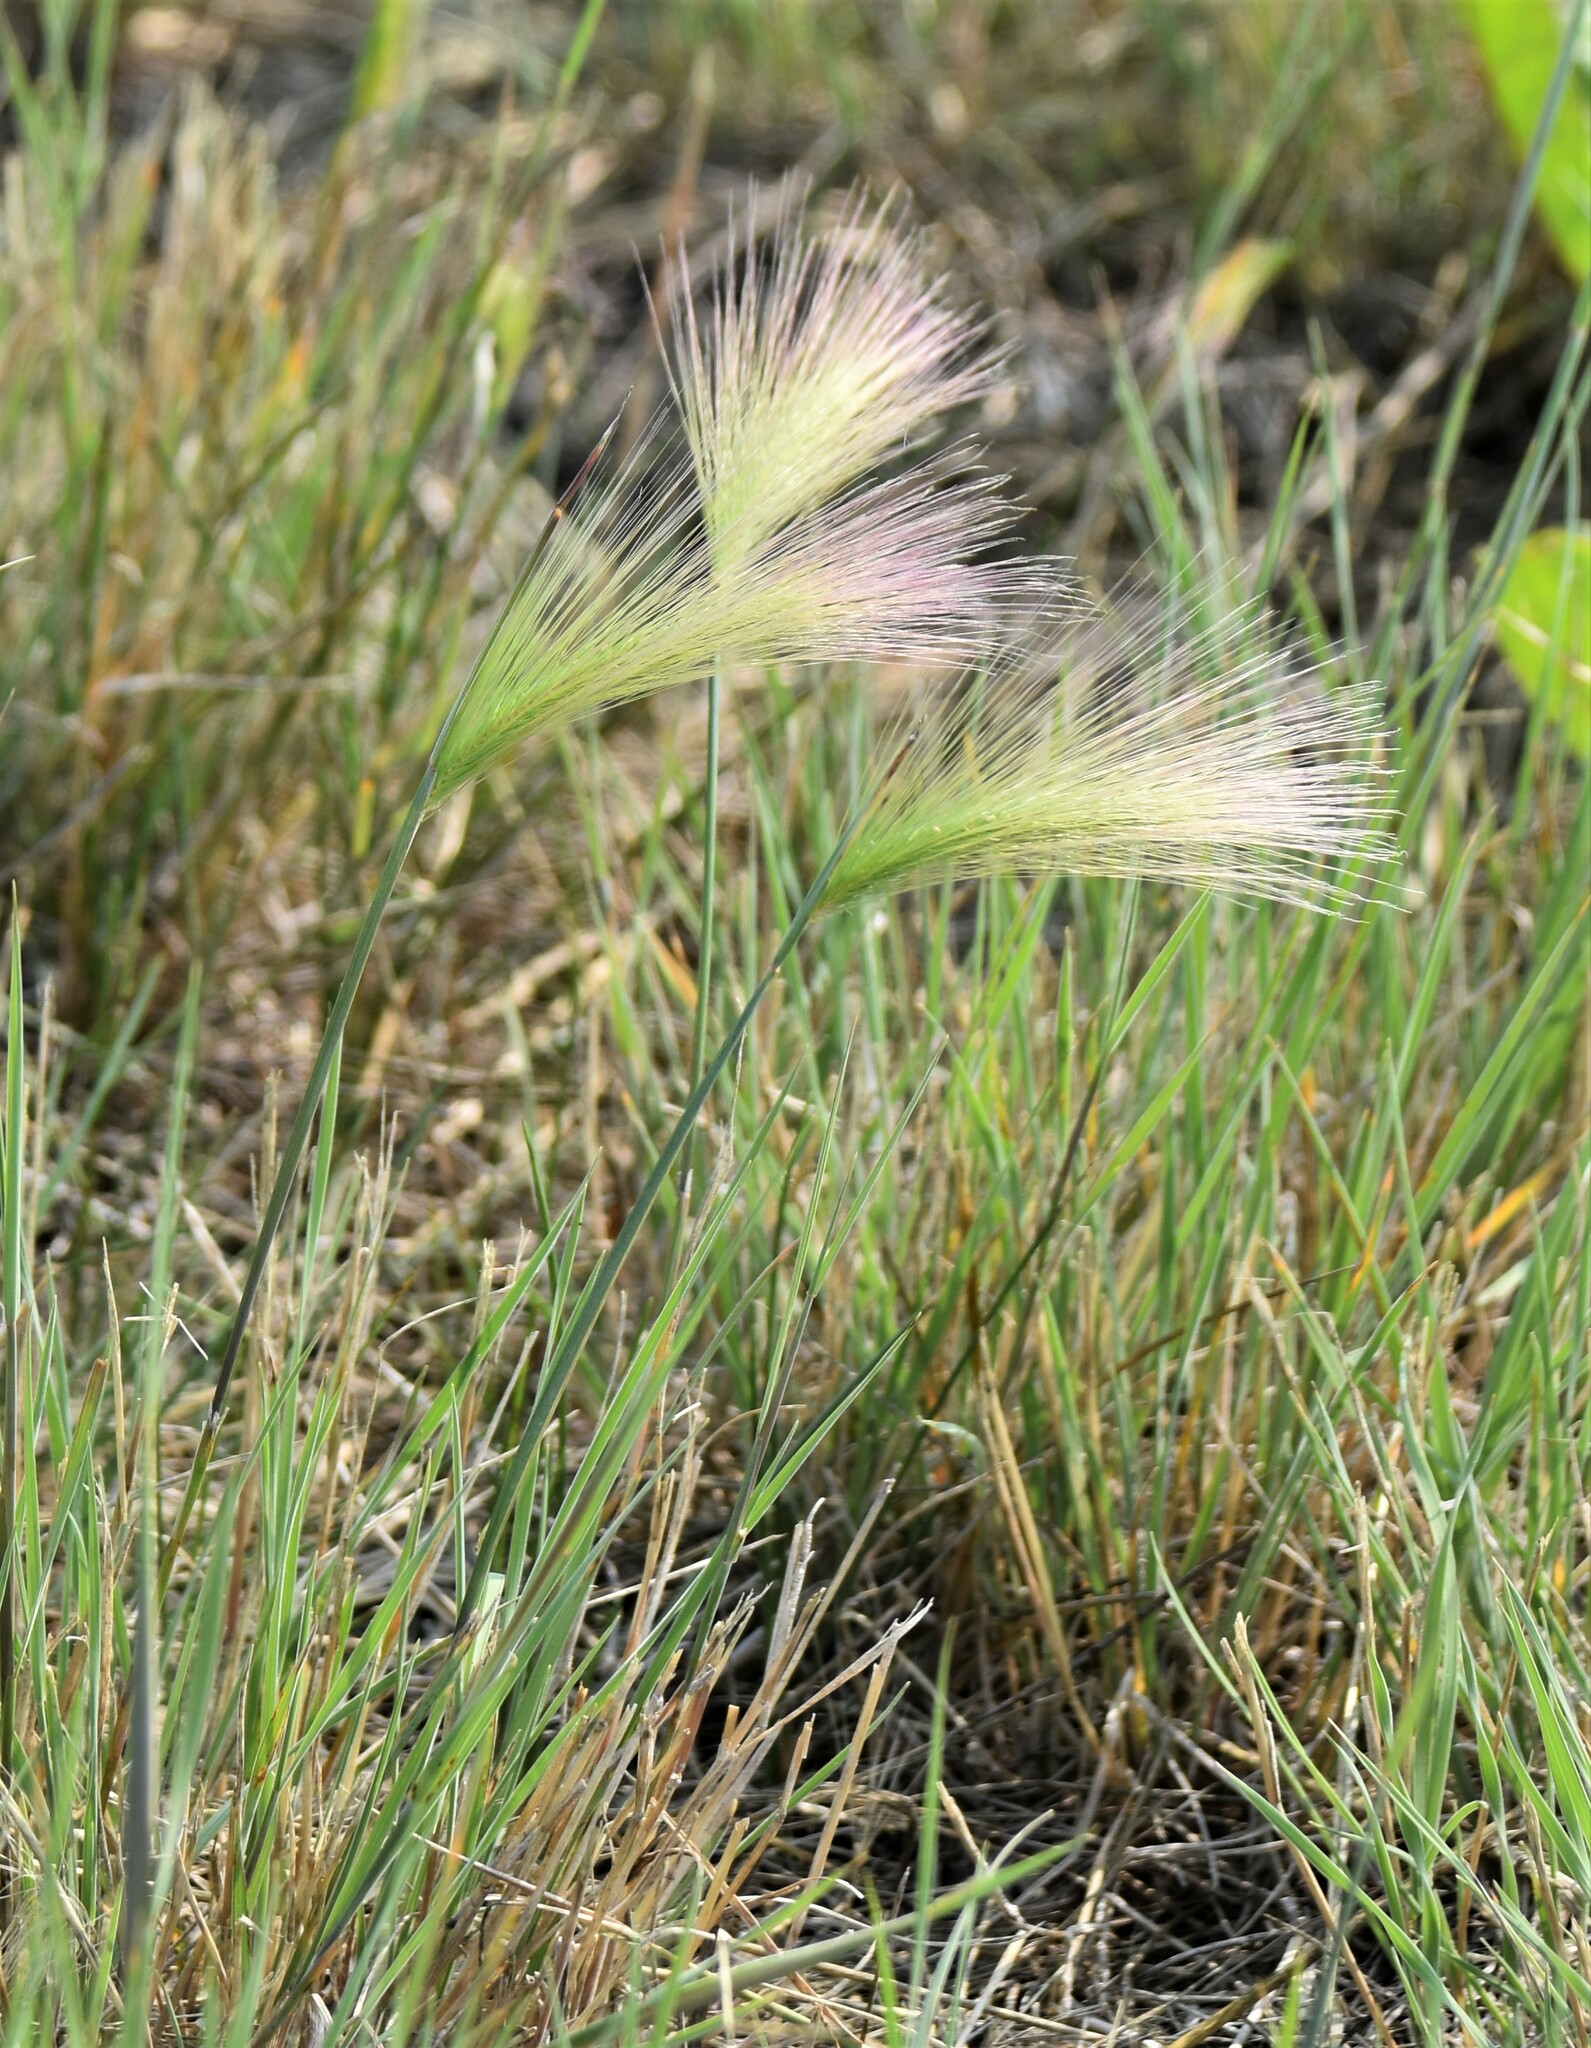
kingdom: Plantae
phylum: Tracheophyta
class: Liliopsida
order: Poales
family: Poaceae
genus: Hordeum
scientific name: Hordeum jubatum
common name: Foxtail barley
